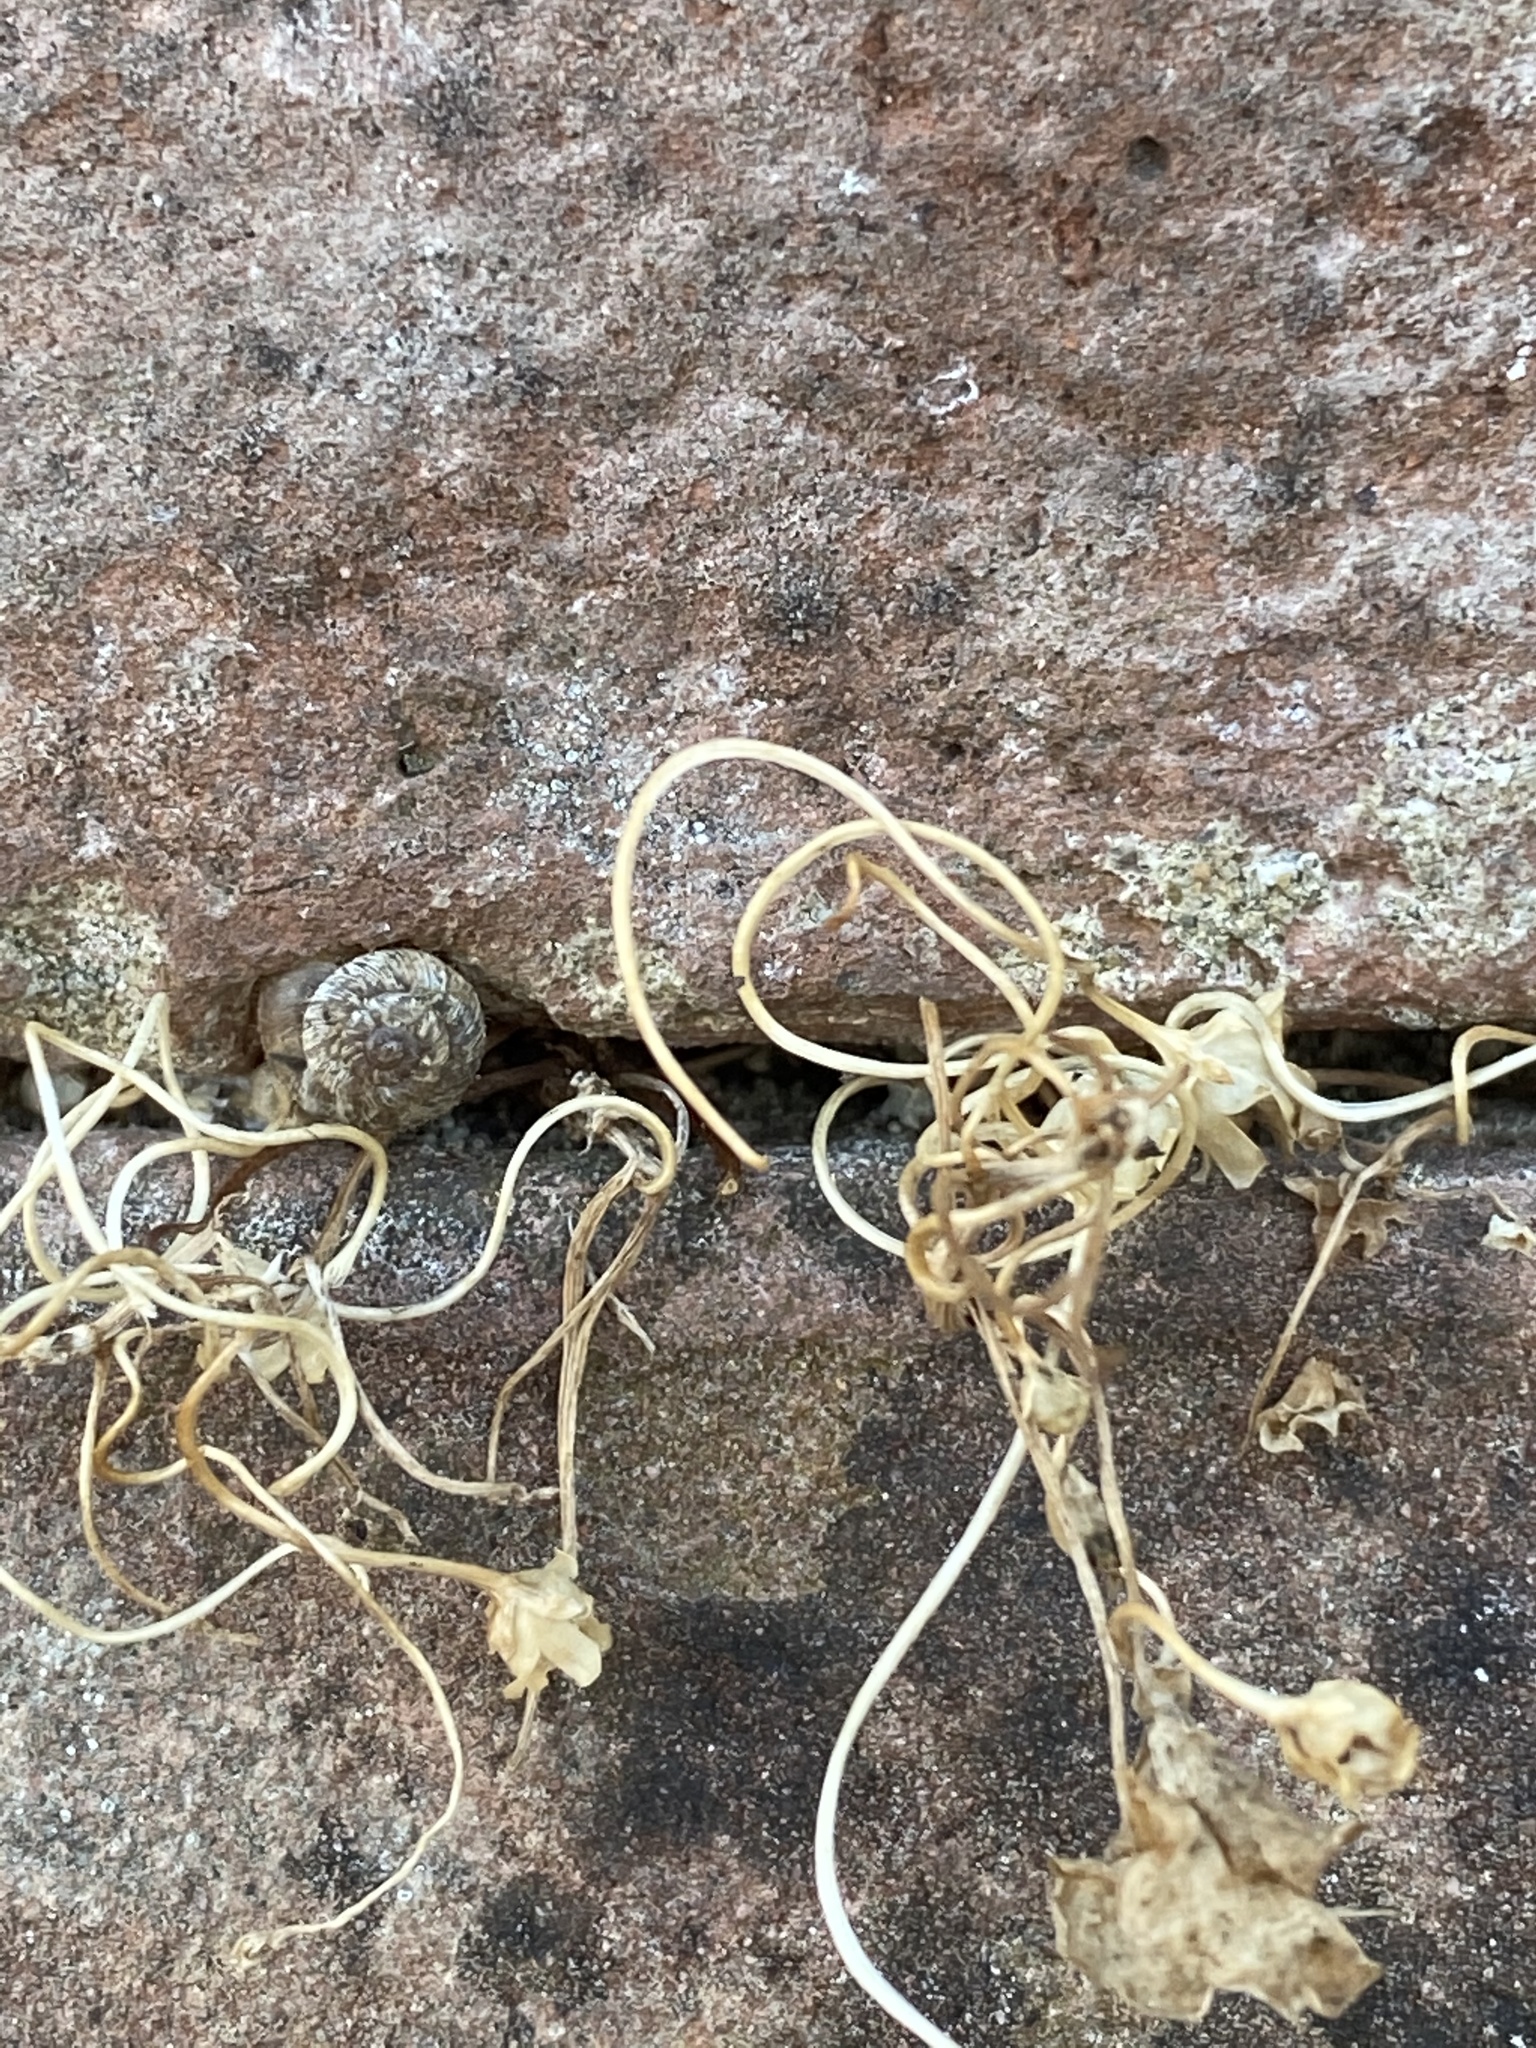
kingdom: Animalia
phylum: Mollusca
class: Gastropoda
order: Stylommatophora
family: Geomitridae
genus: Xerotricha
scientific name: Xerotricha conspurcata
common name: Snail
